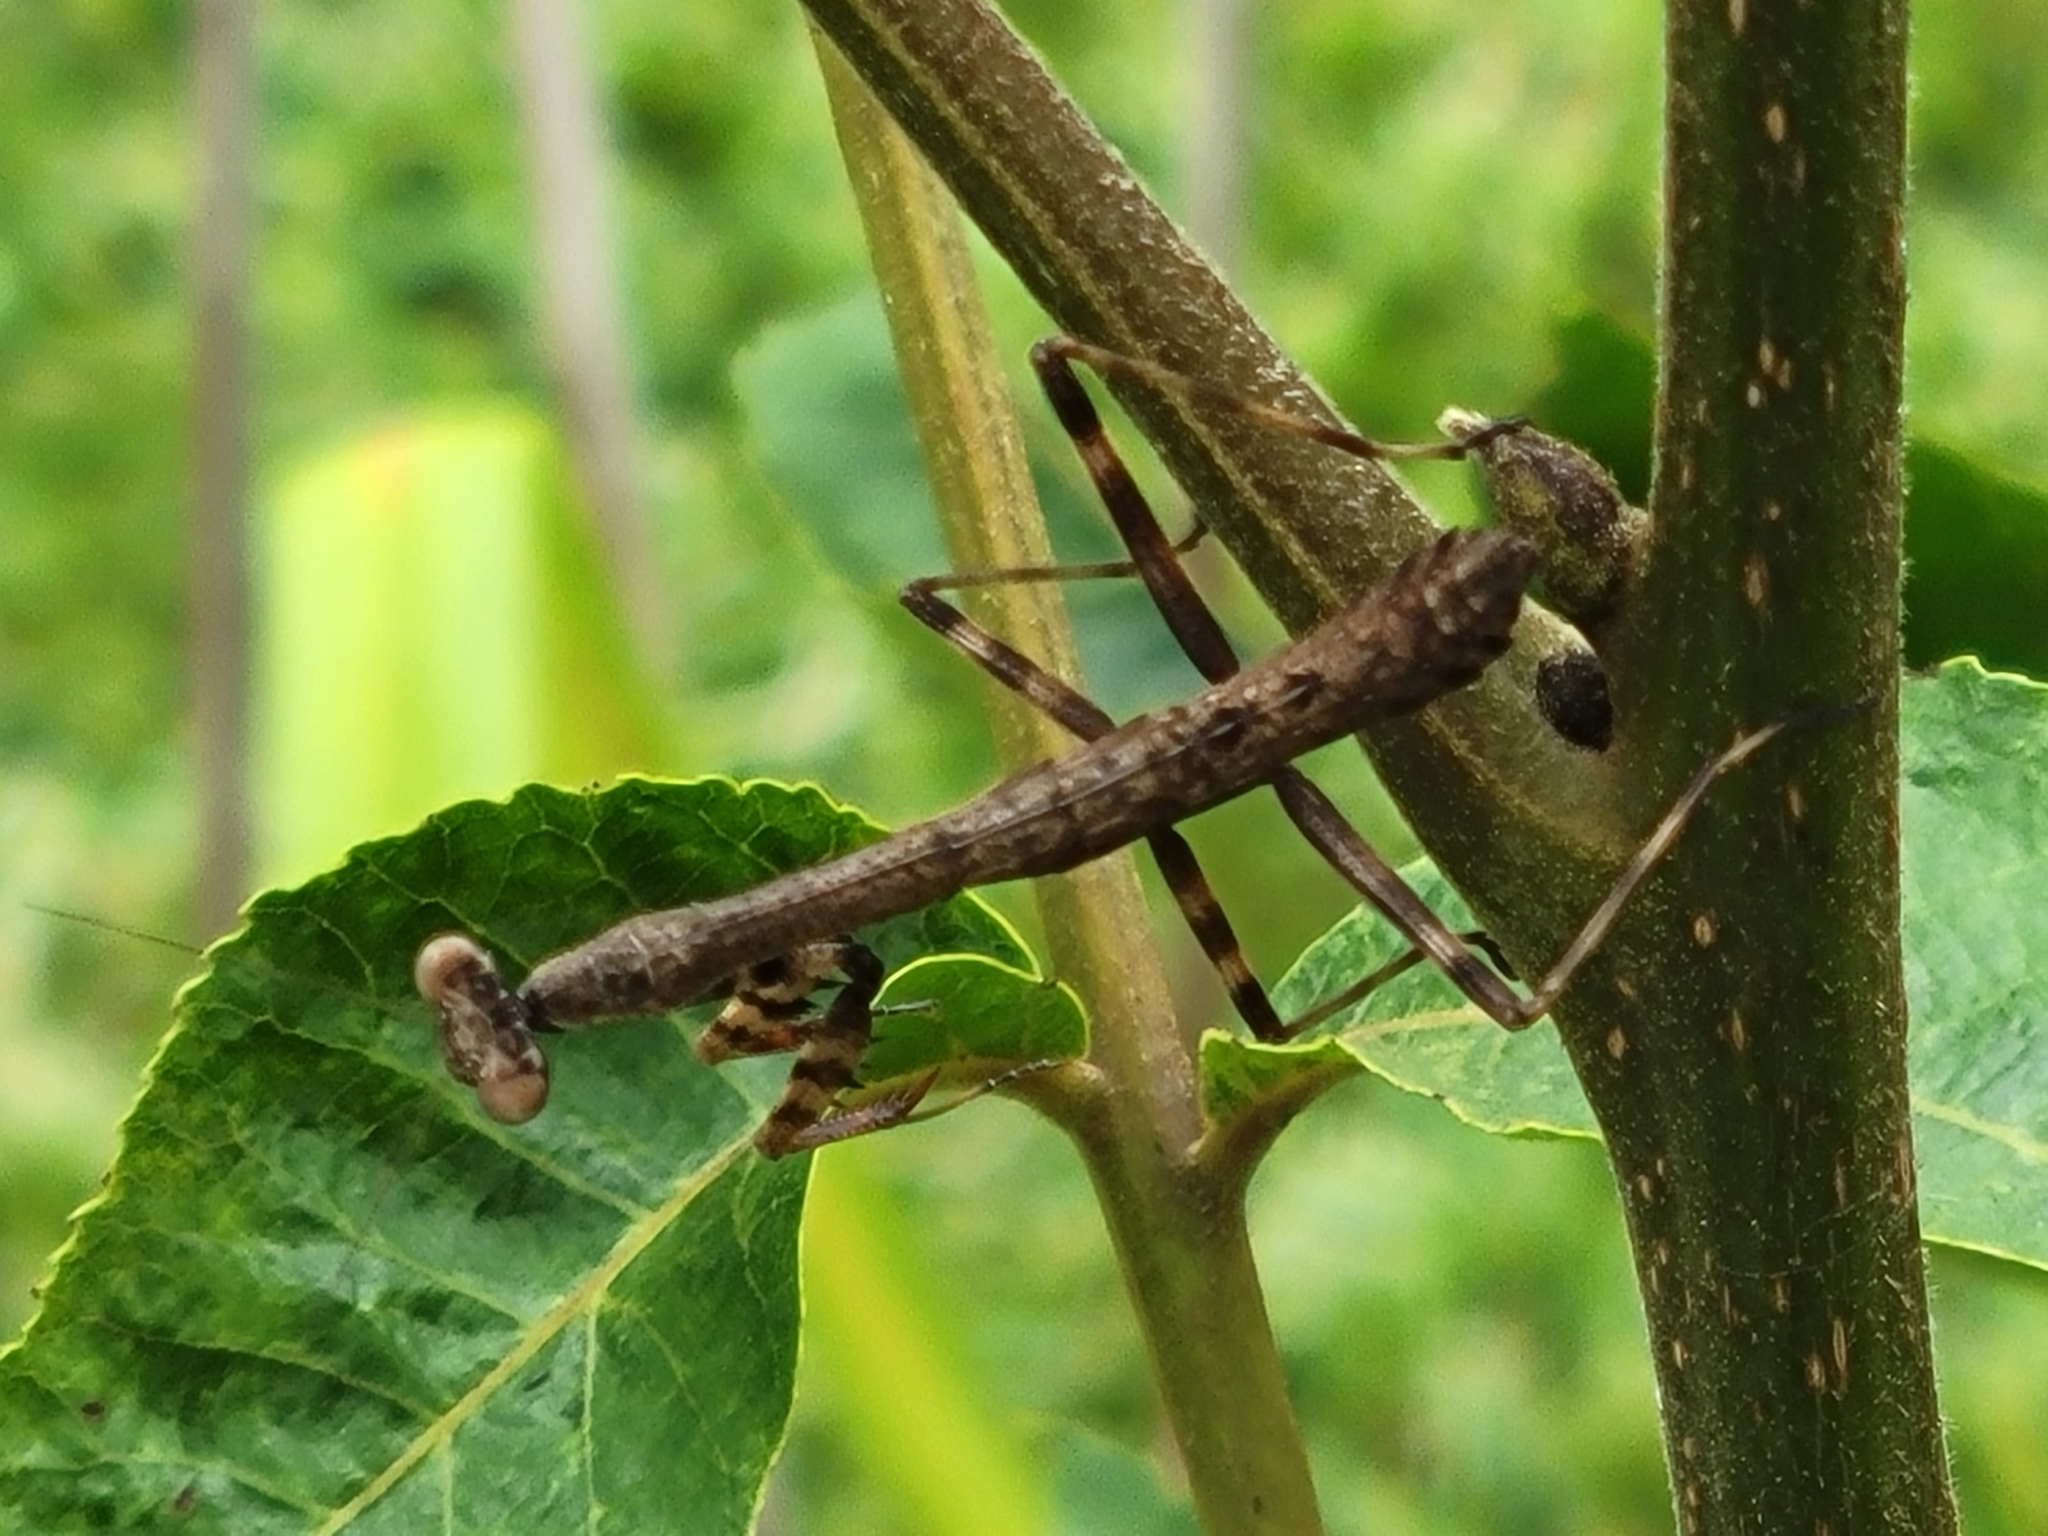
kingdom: Animalia
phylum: Arthropoda
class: Insecta
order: Mantodea
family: Mantidae
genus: Stagmomantis
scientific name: Stagmomantis carolina
